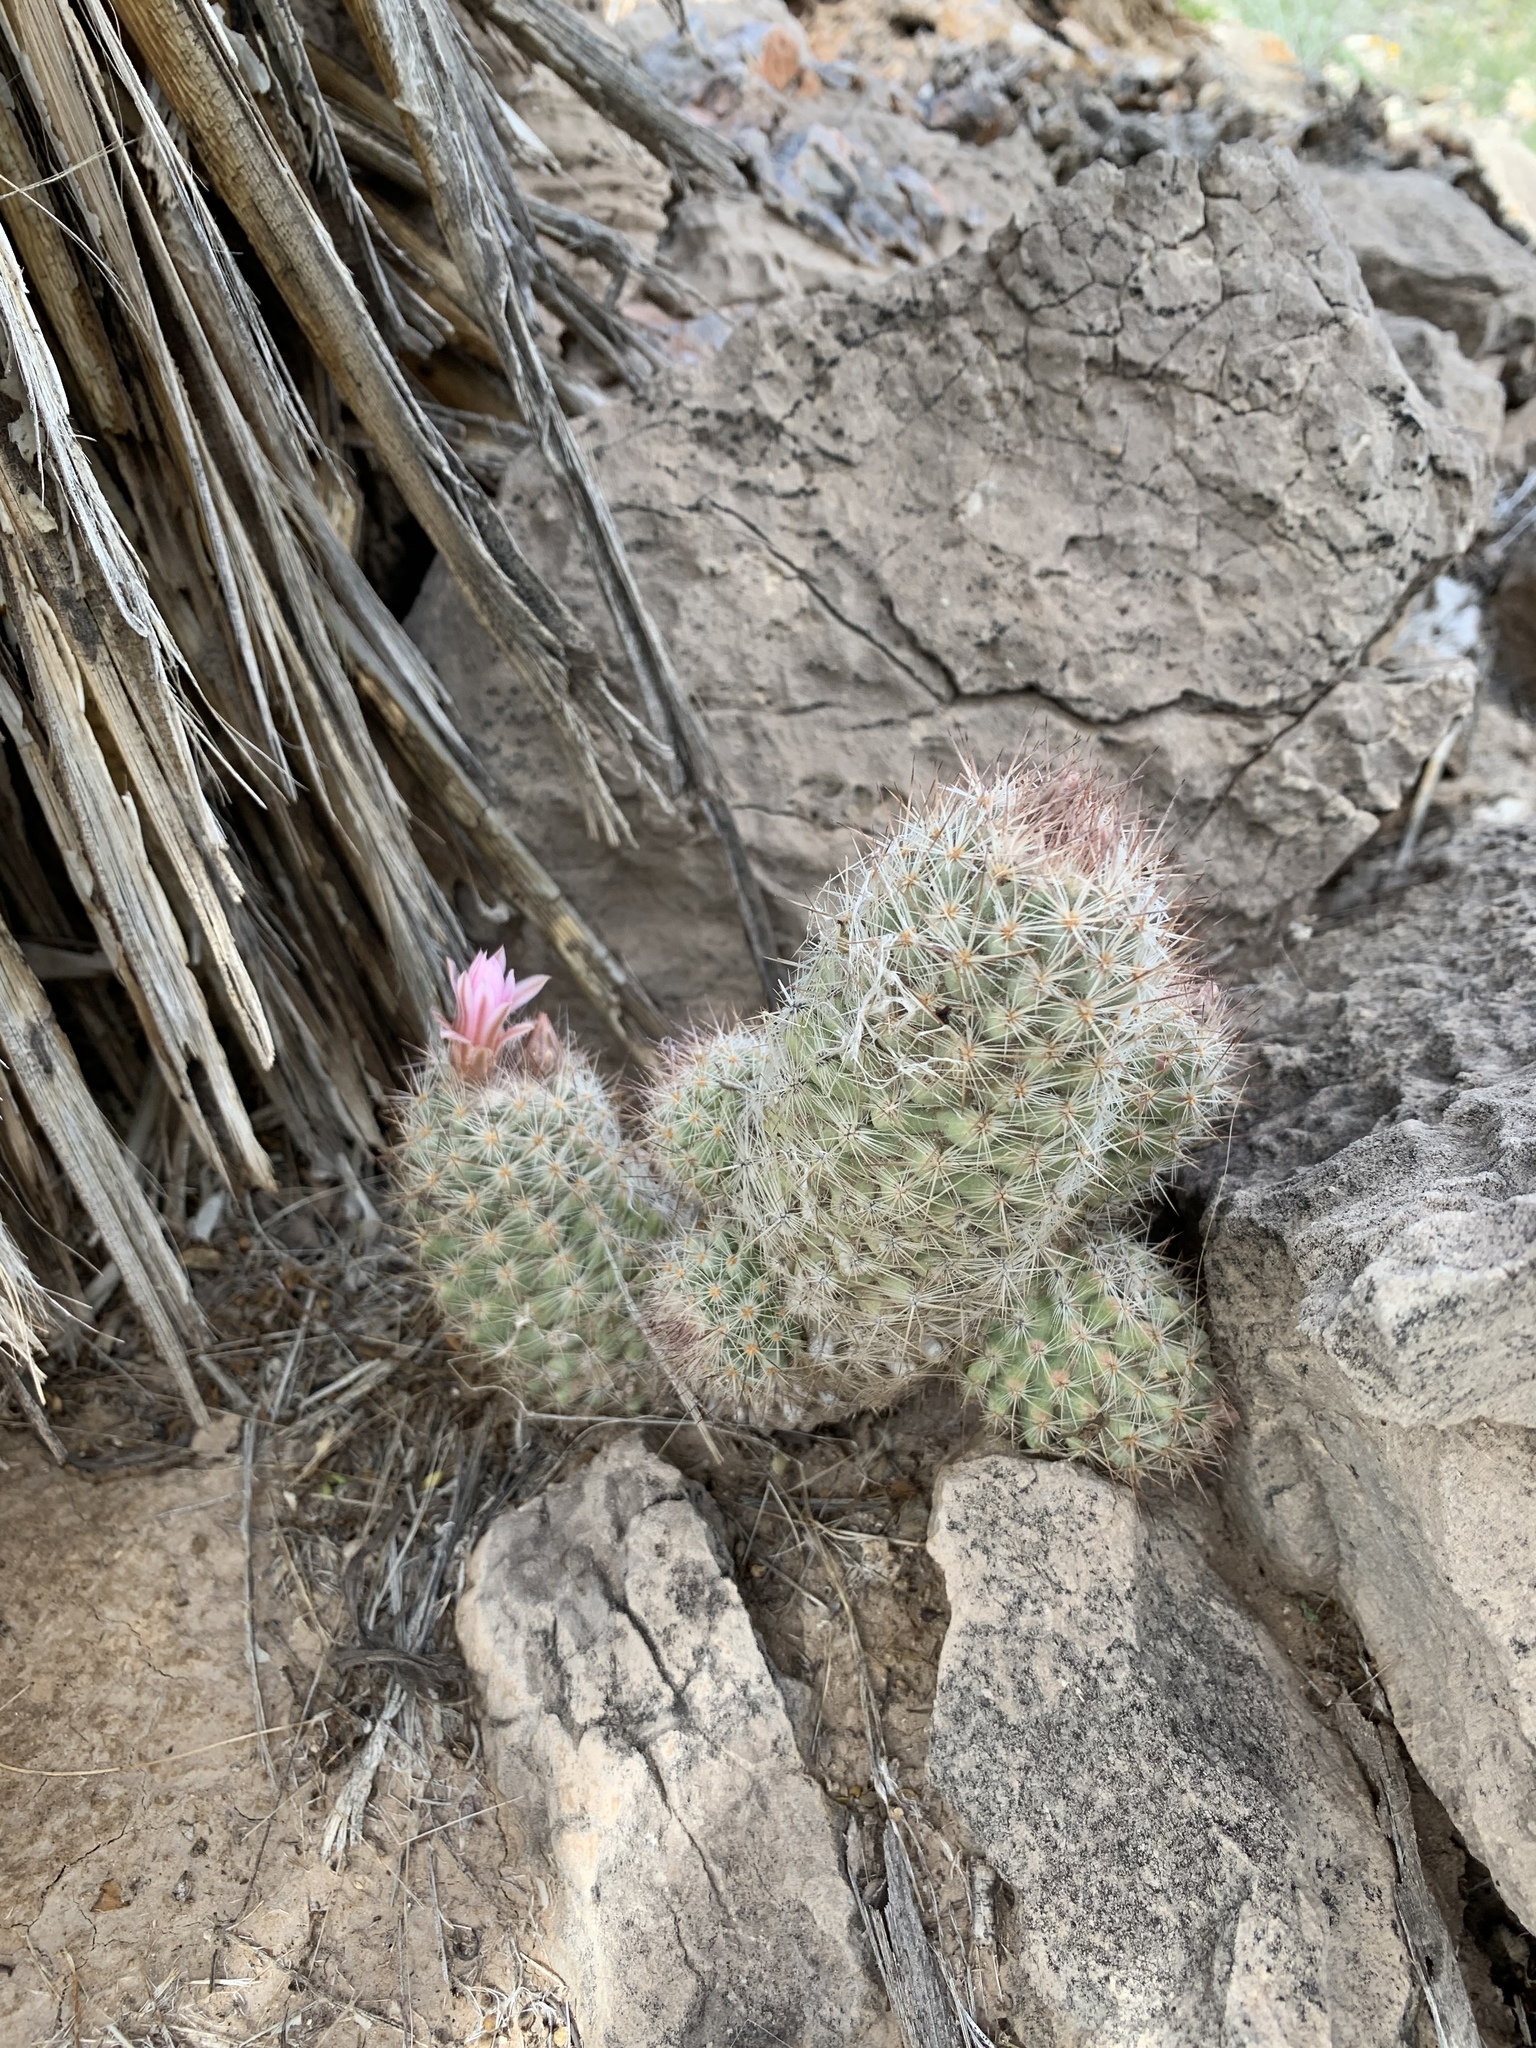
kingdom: Plantae
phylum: Tracheophyta
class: Magnoliopsida
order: Caryophyllales
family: Cactaceae
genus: Pelecyphora
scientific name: Pelecyphora tuberculosa
